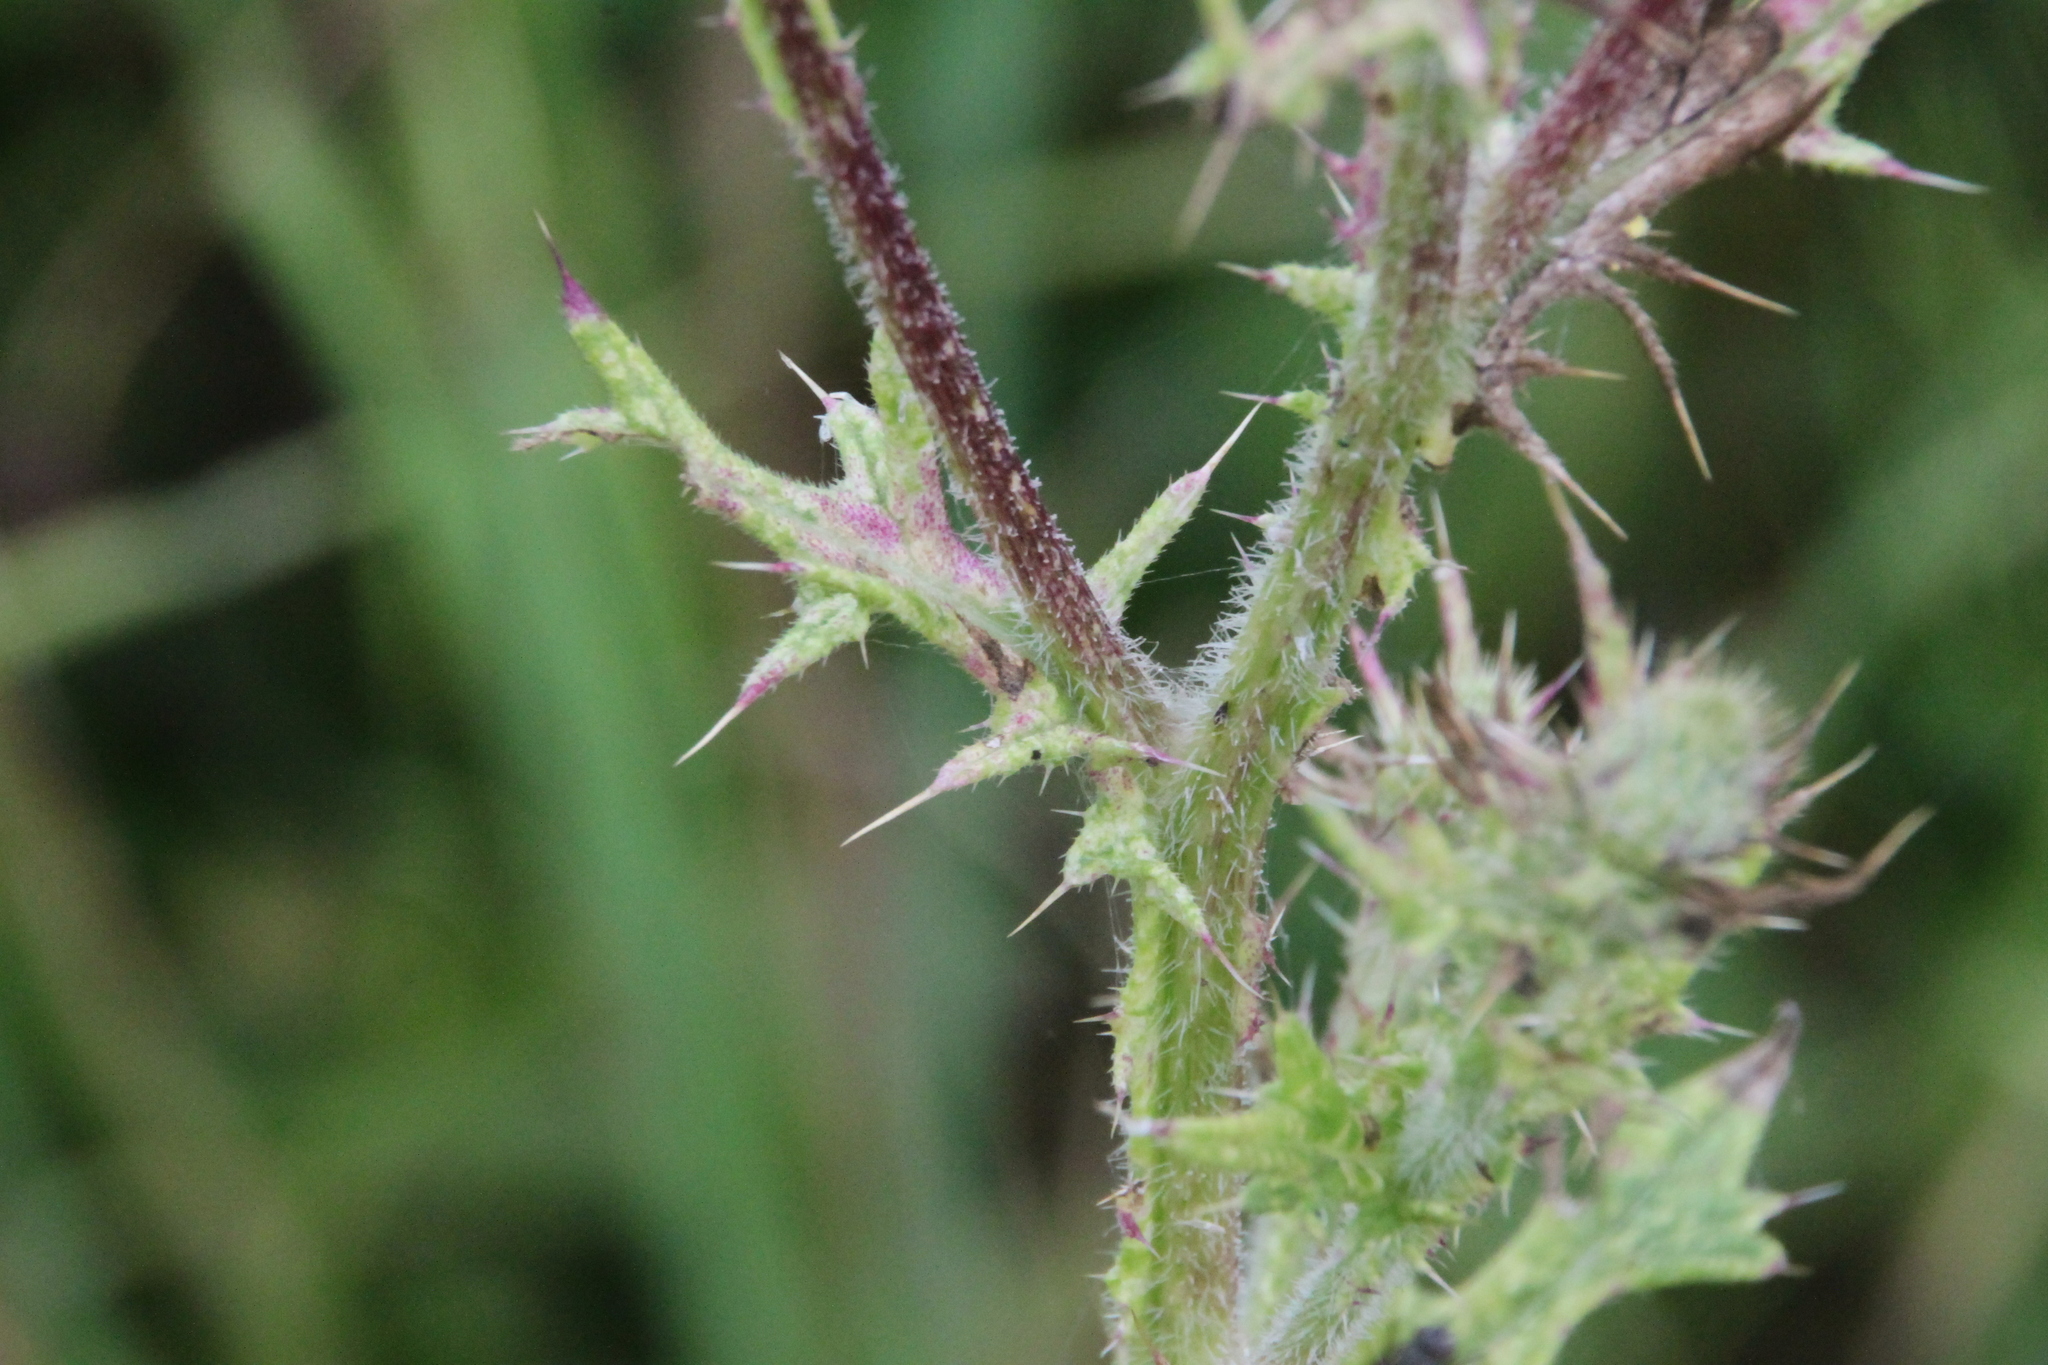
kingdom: Plantae
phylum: Tracheophyta
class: Magnoliopsida
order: Asterales
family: Asteraceae
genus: Cirsium
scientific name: Cirsium vulgare
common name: Bull thistle
